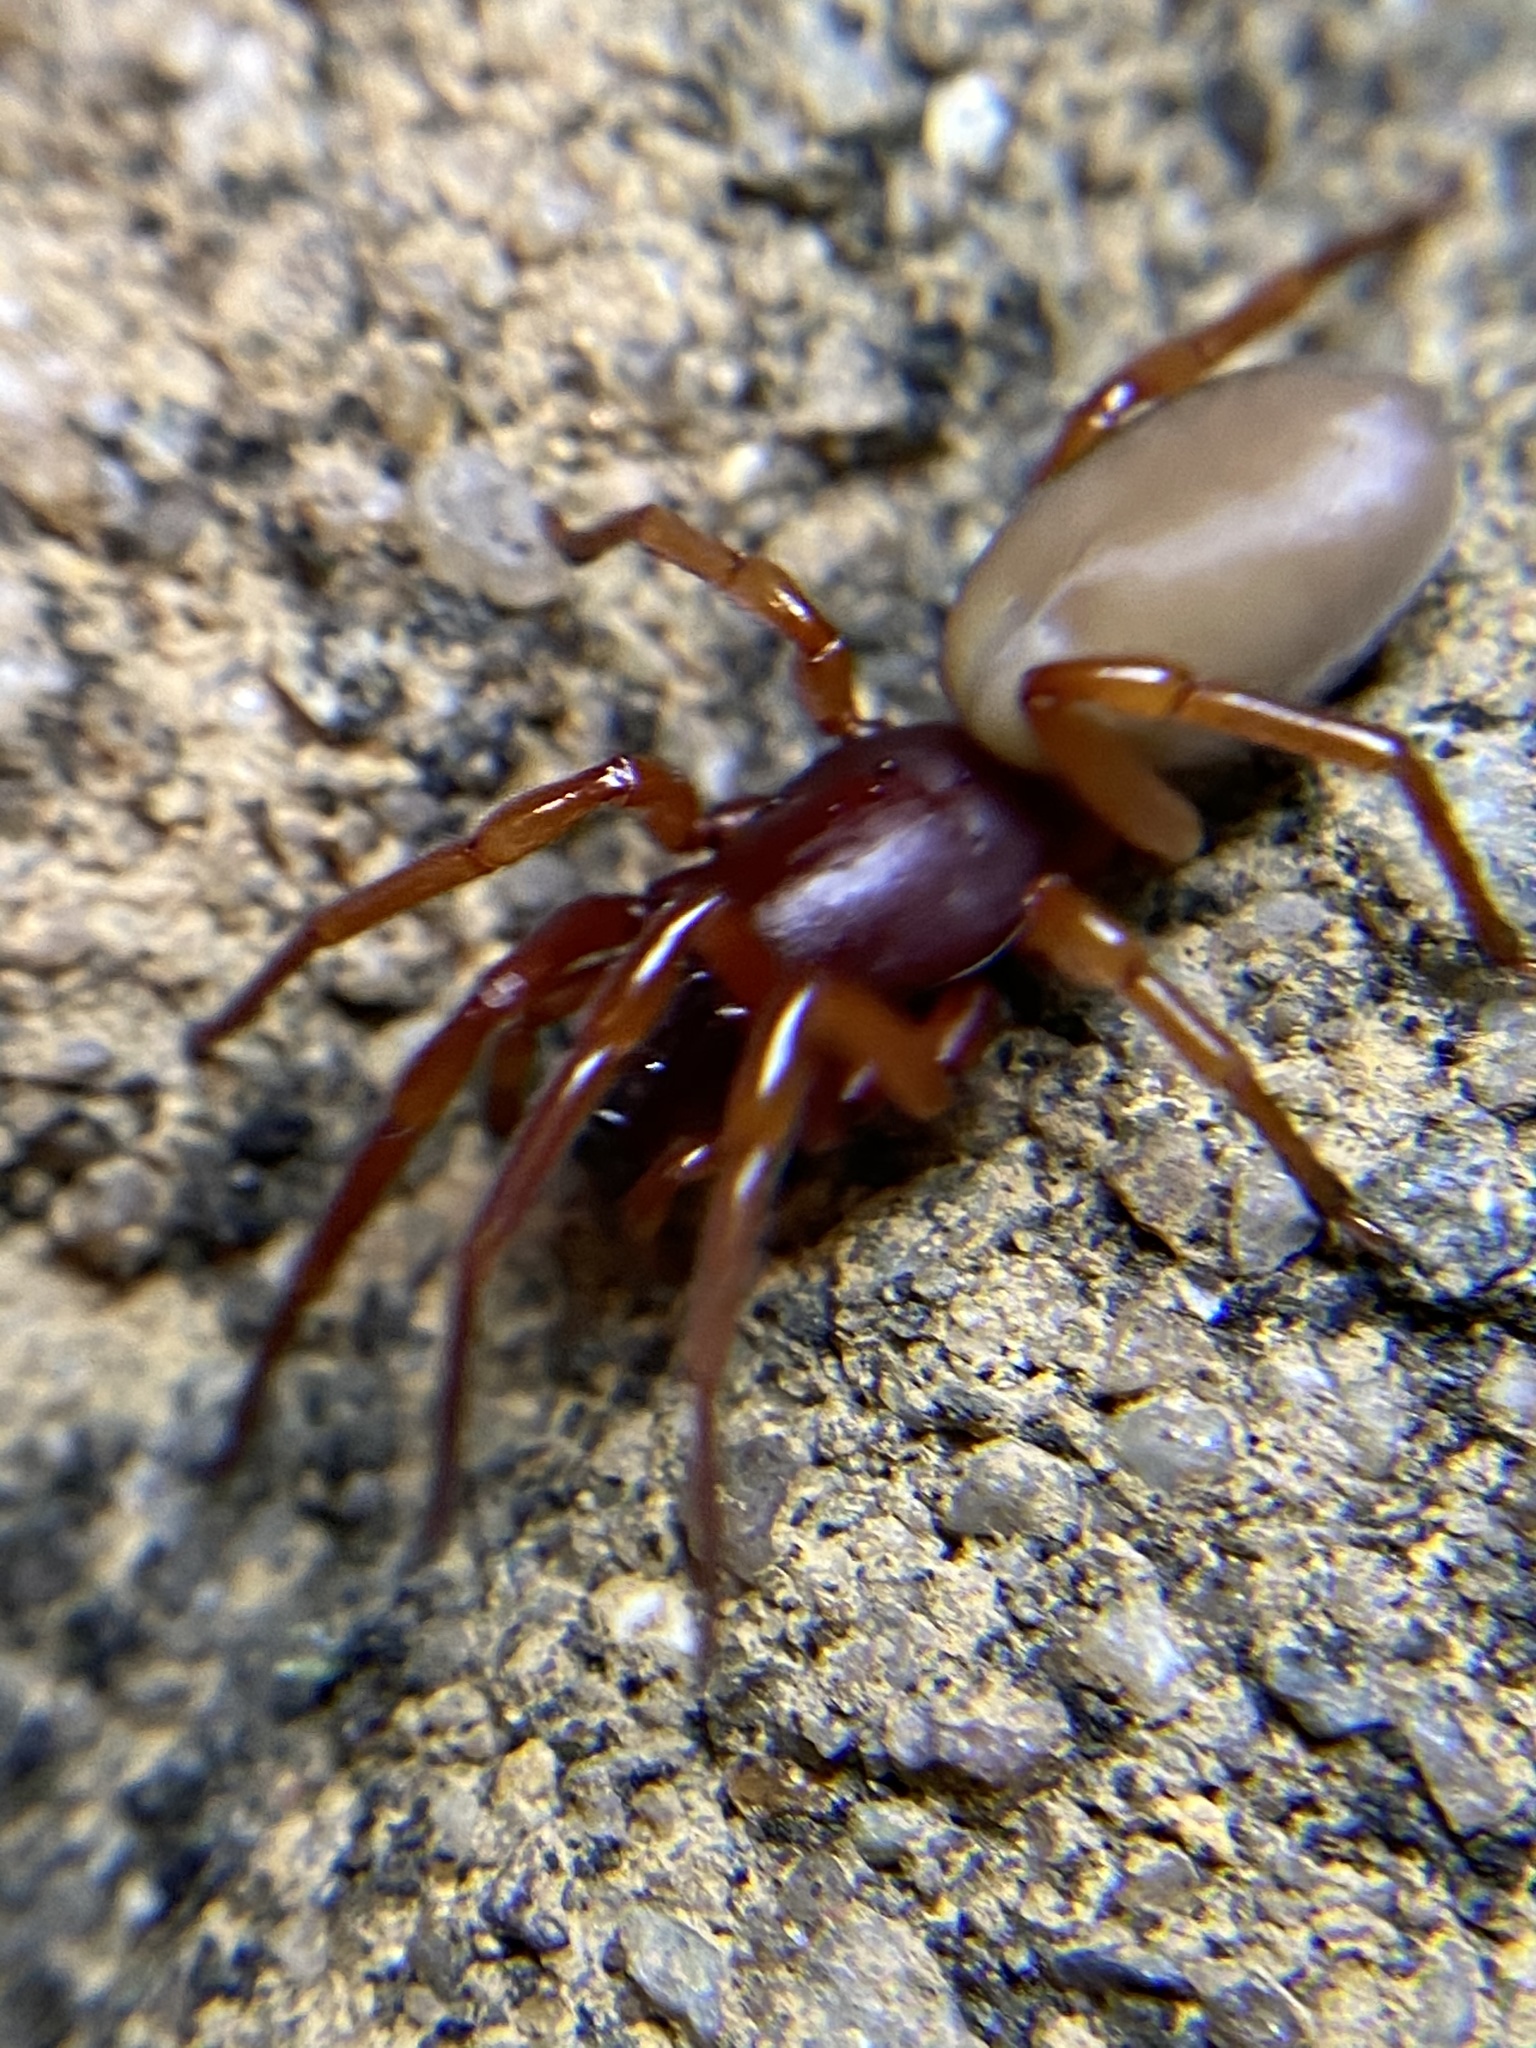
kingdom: Animalia
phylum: Arthropoda
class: Arachnida
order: Araneae
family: Dysderidae
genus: Dysdera
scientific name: Dysdera crocata
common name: Woodlouse spider
